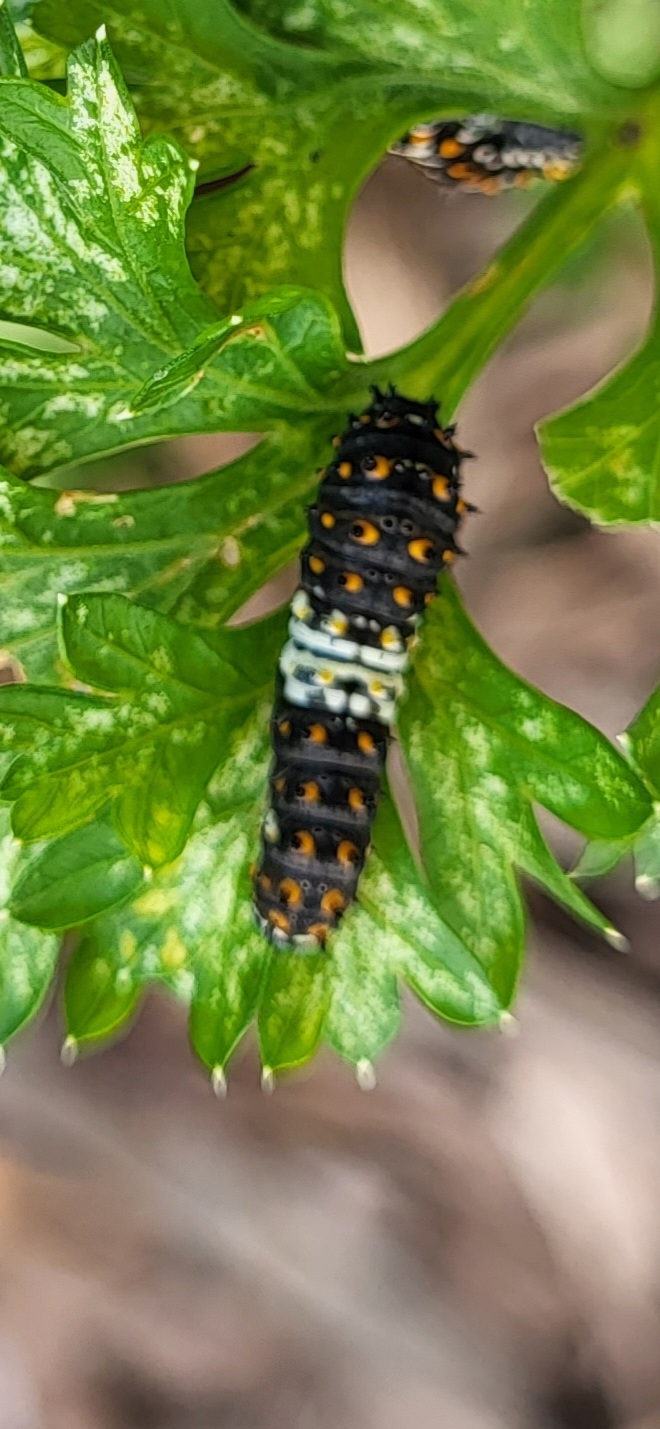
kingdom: Animalia
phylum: Arthropoda
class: Insecta
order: Lepidoptera
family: Papilionidae
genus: Papilio
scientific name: Papilio polyxenes
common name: Black swallowtail
